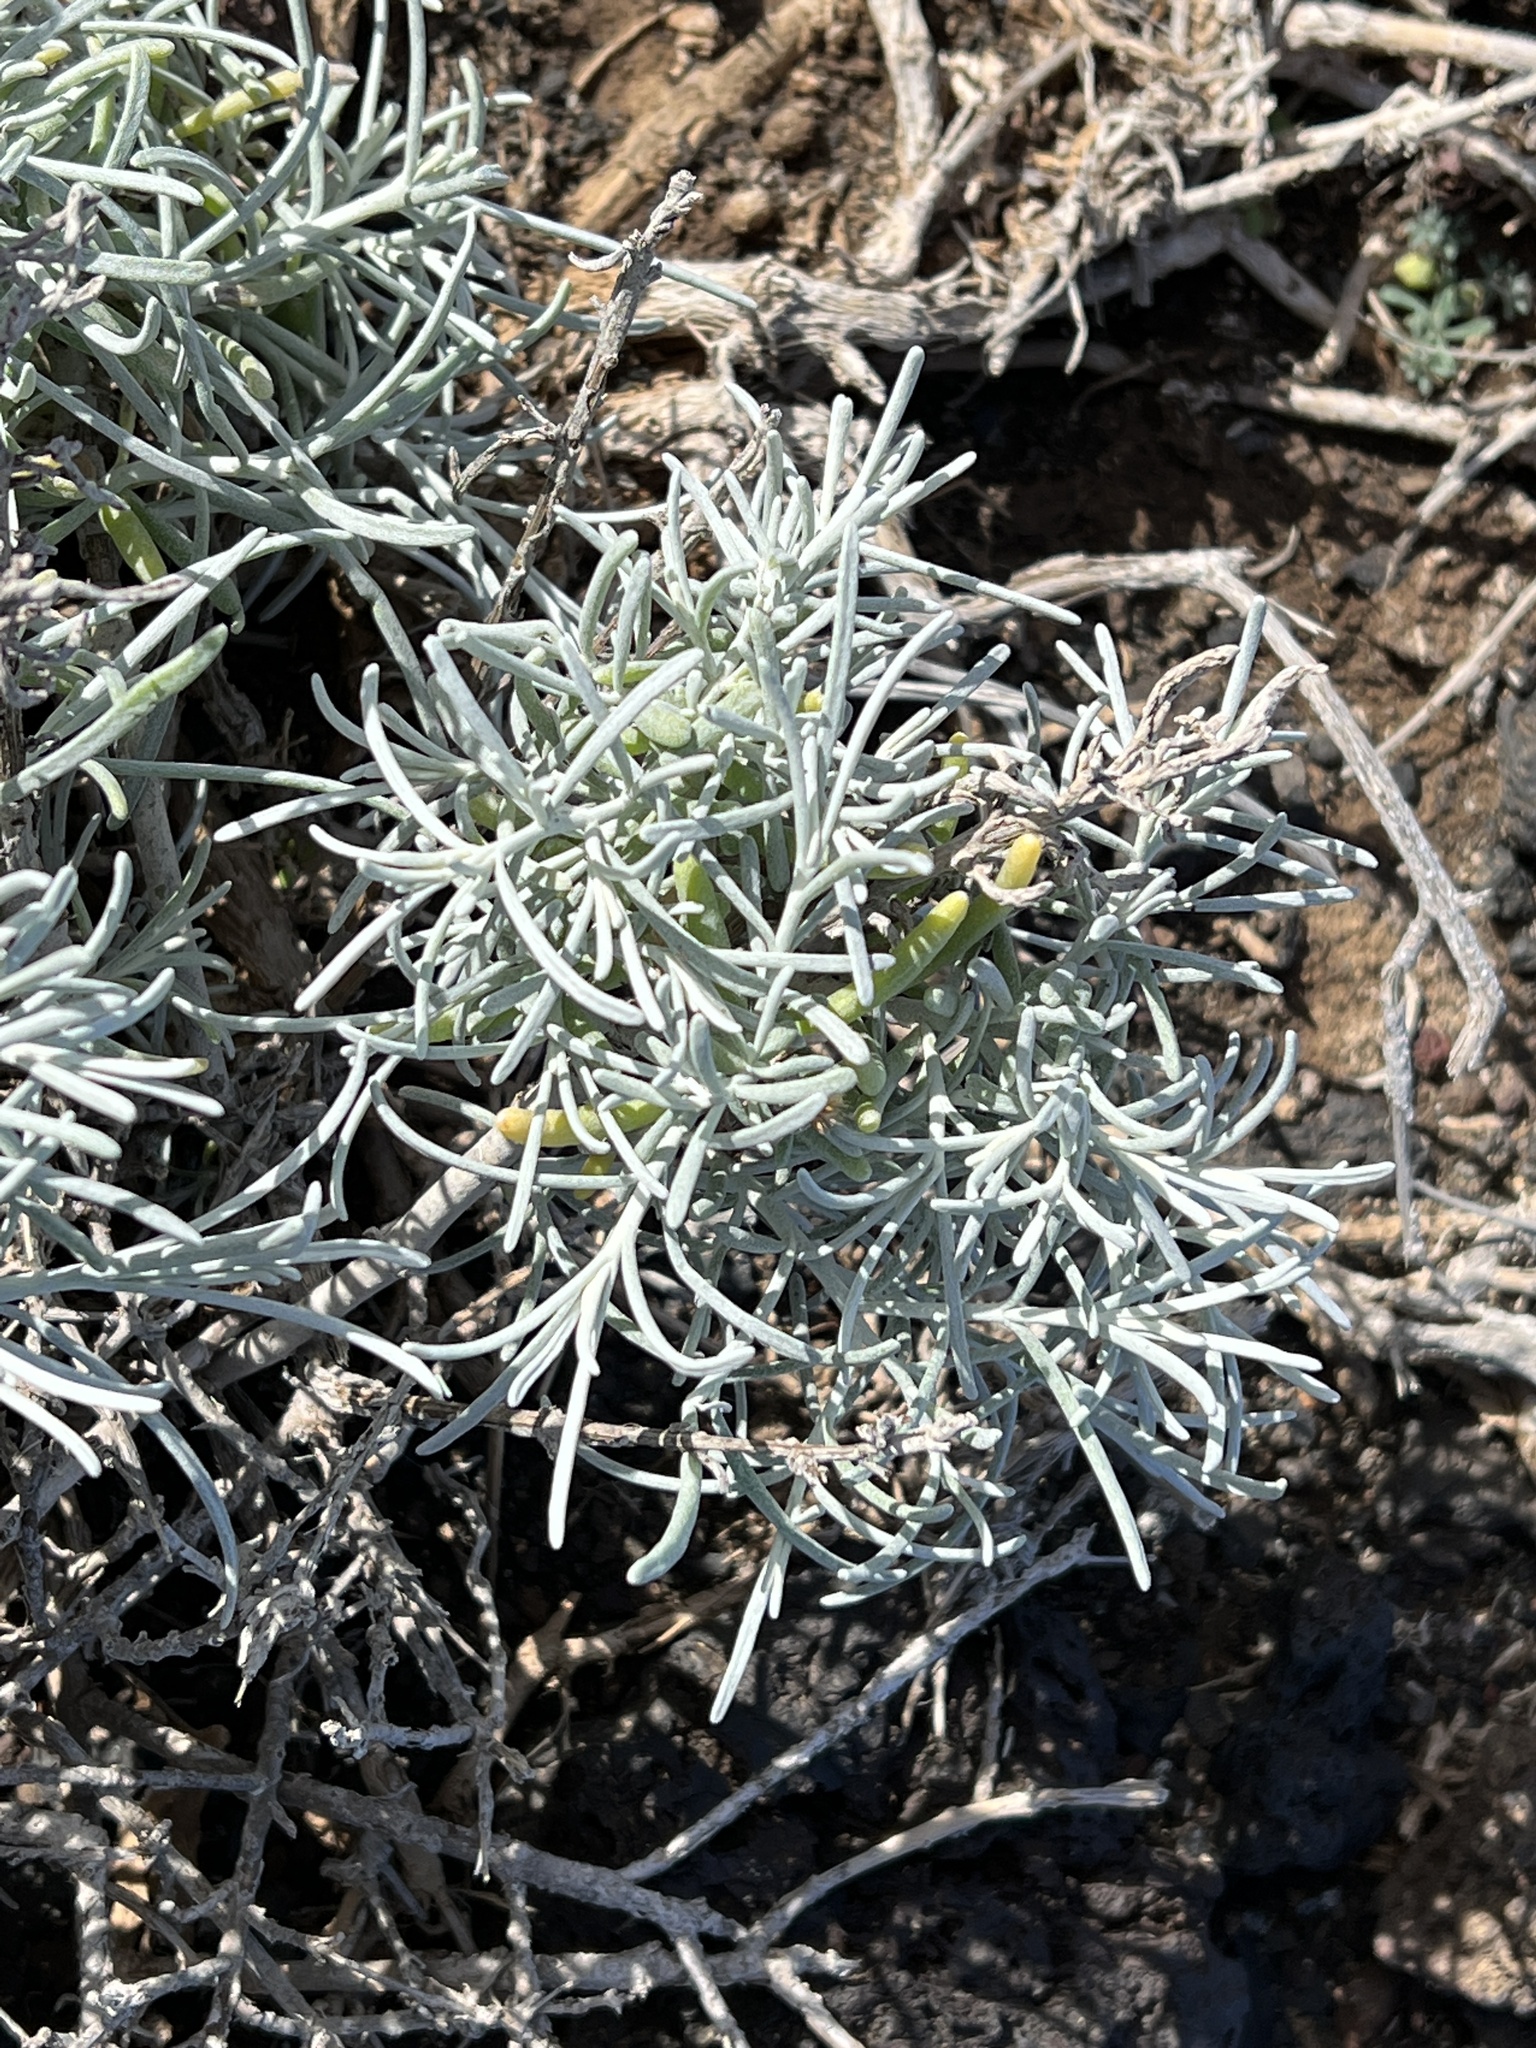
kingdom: Plantae
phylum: Tracheophyta
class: Magnoliopsida
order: Asterales
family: Asteraceae
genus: Schizogyne
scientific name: Schizogyne sericea
